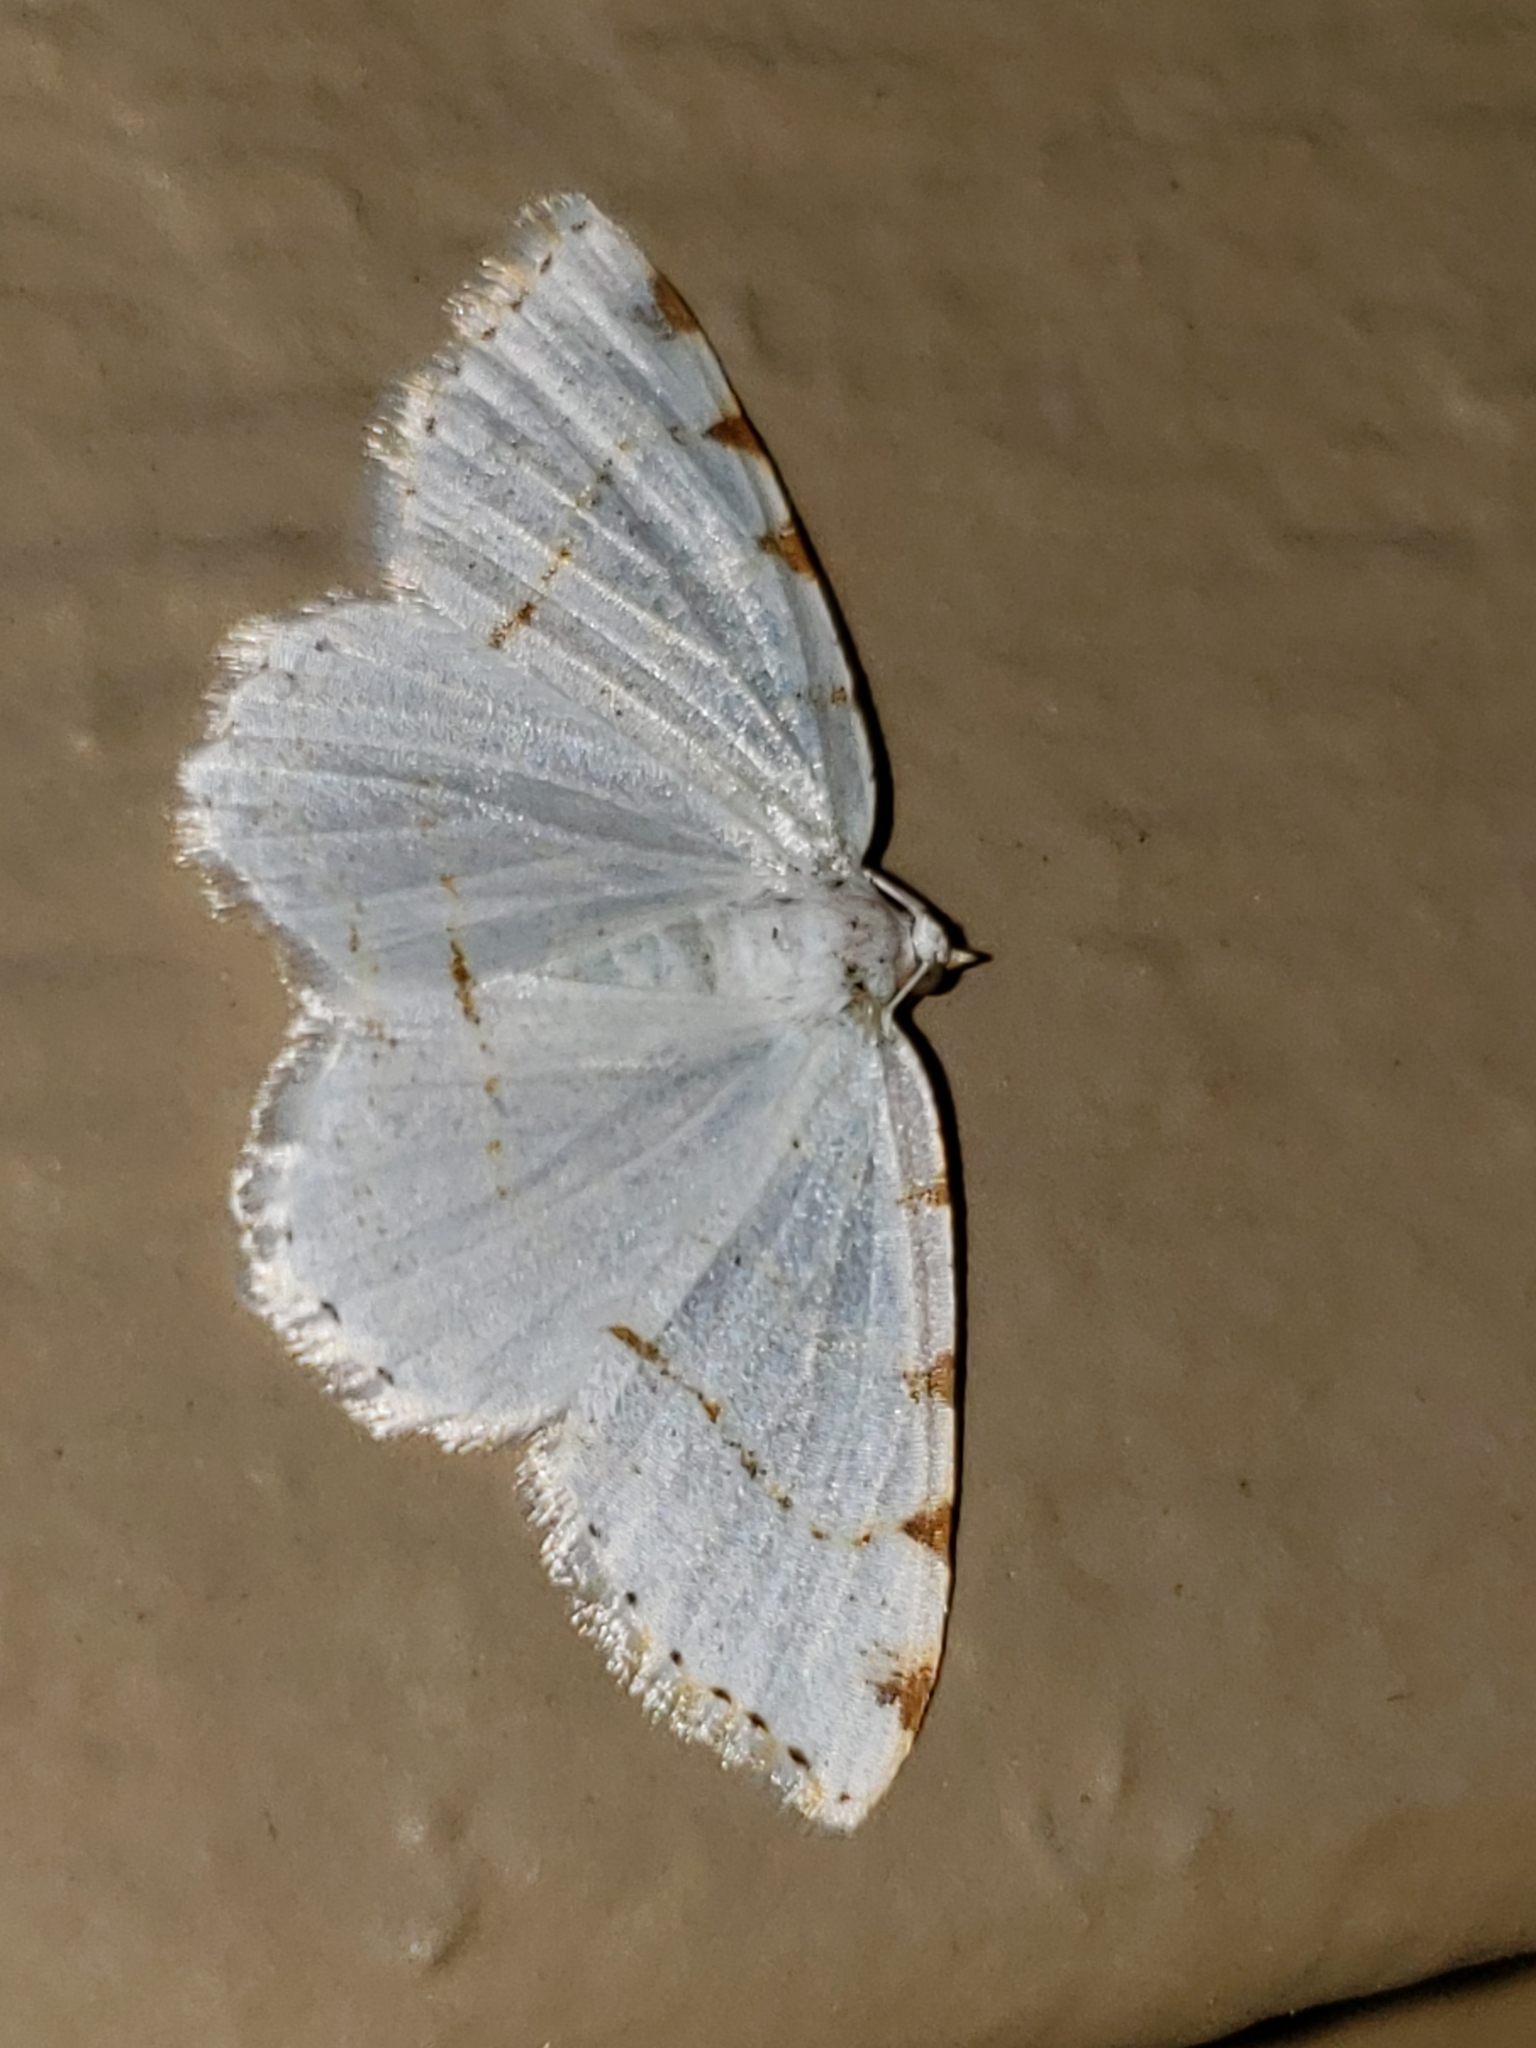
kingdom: Animalia
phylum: Arthropoda
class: Insecta
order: Lepidoptera
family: Geometridae
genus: Macaria
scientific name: Macaria pustularia
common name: Lesser maple spanworm moth
